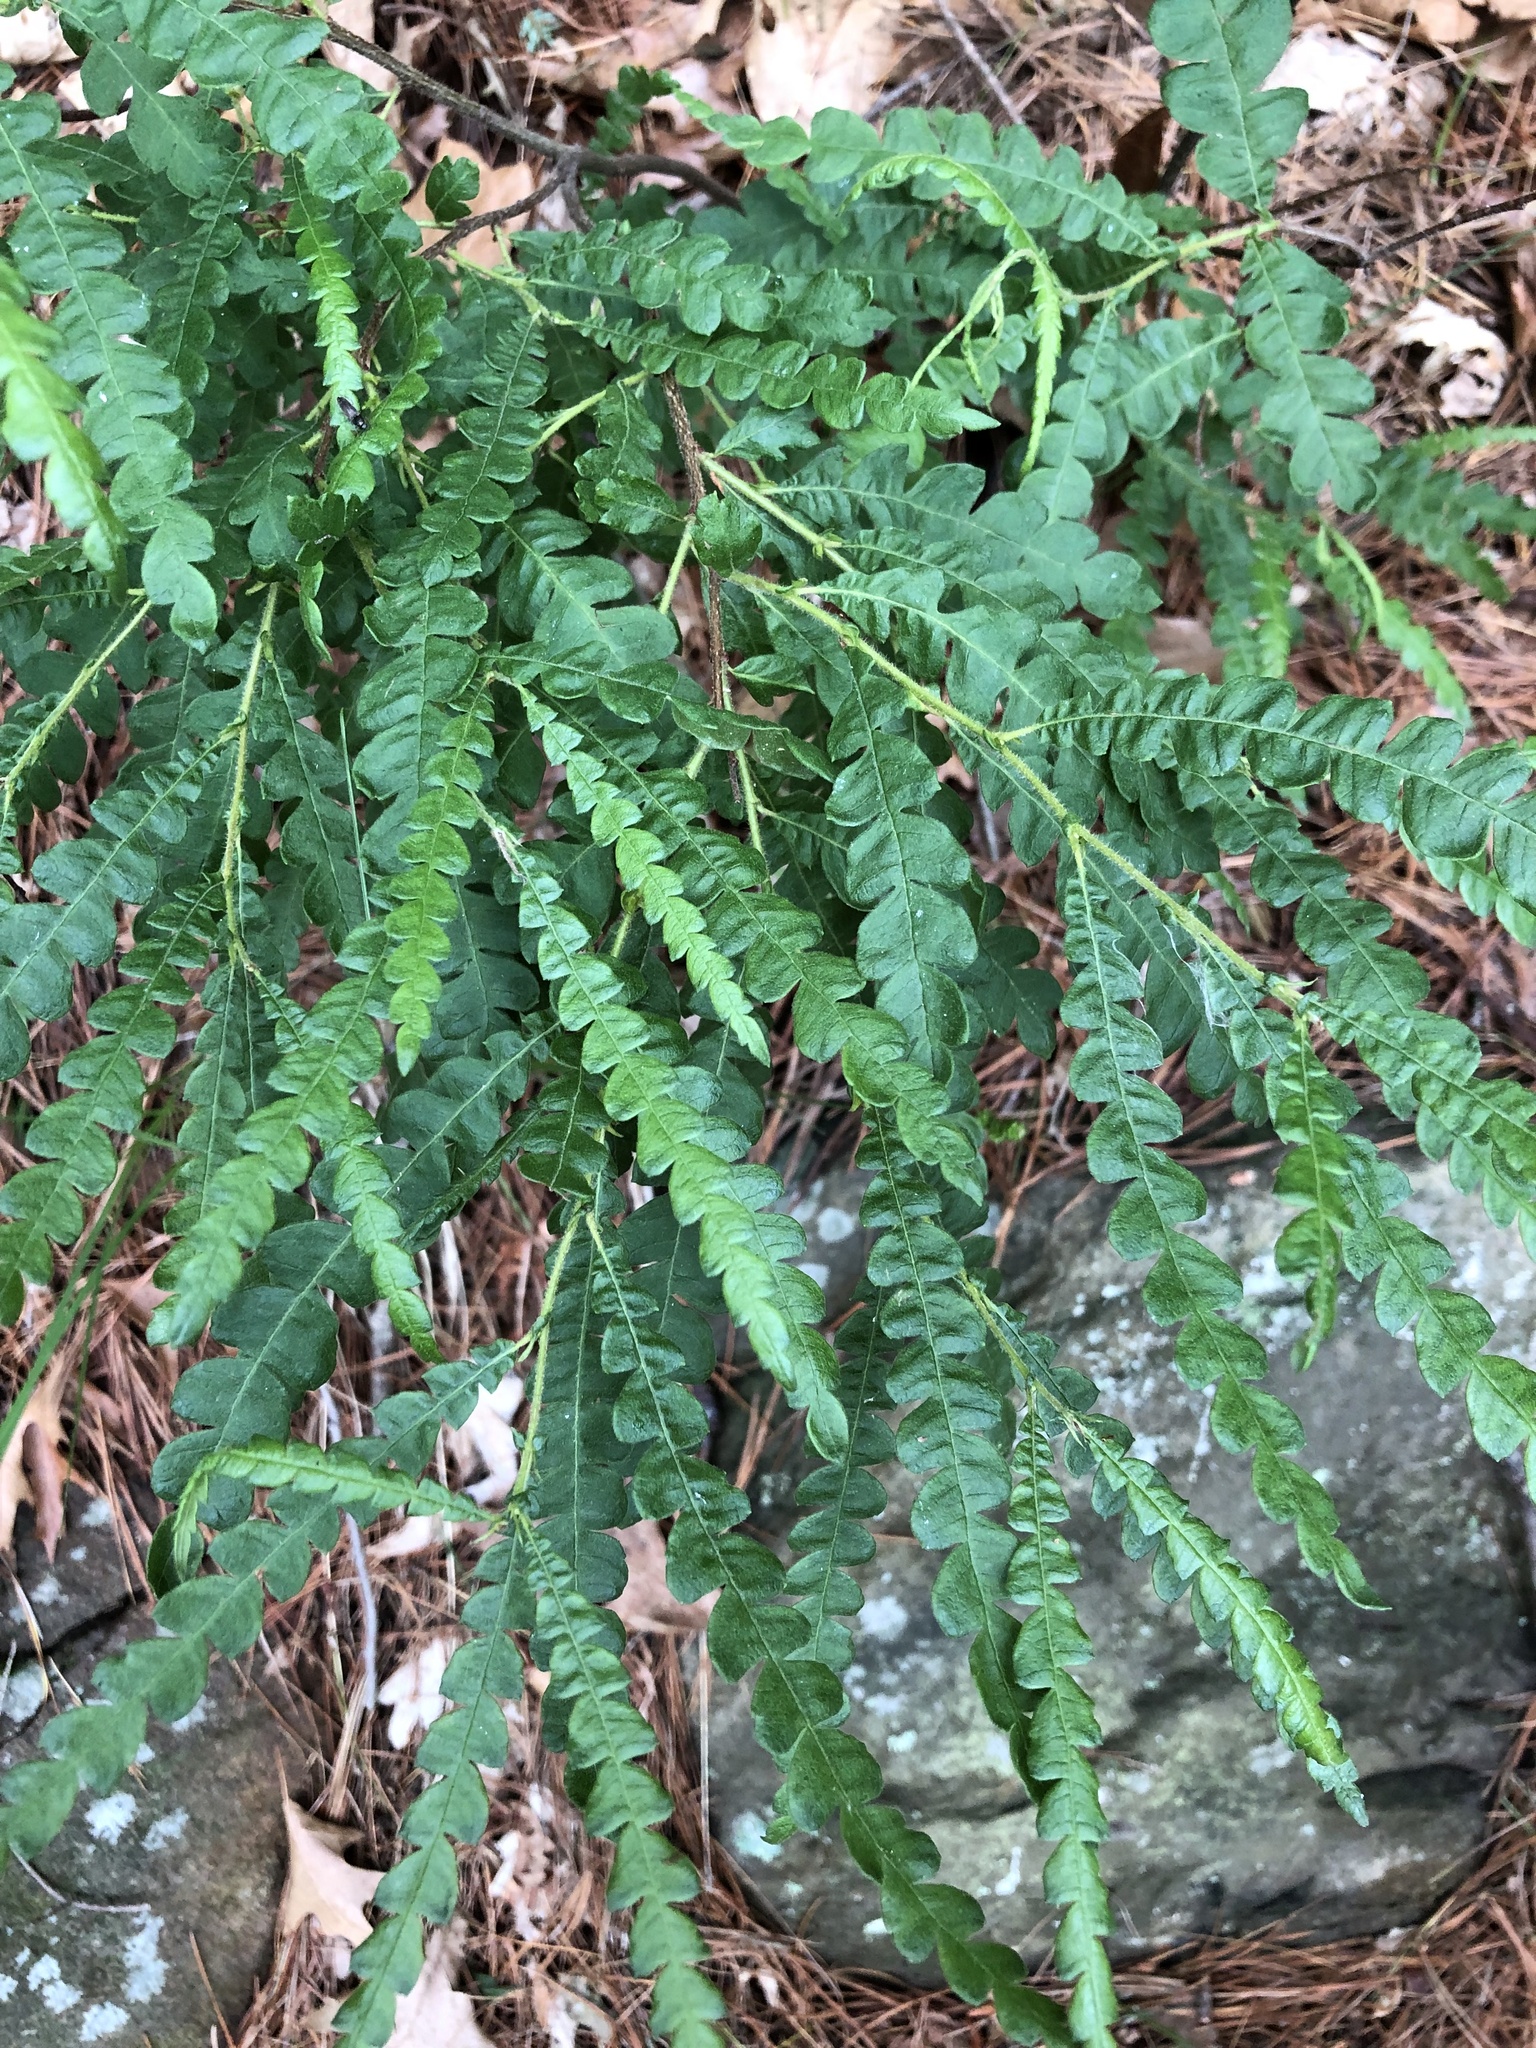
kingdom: Plantae
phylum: Tracheophyta
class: Magnoliopsida
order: Fagales
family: Myricaceae
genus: Comptonia
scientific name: Comptonia peregrina
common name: Sweet-fern
